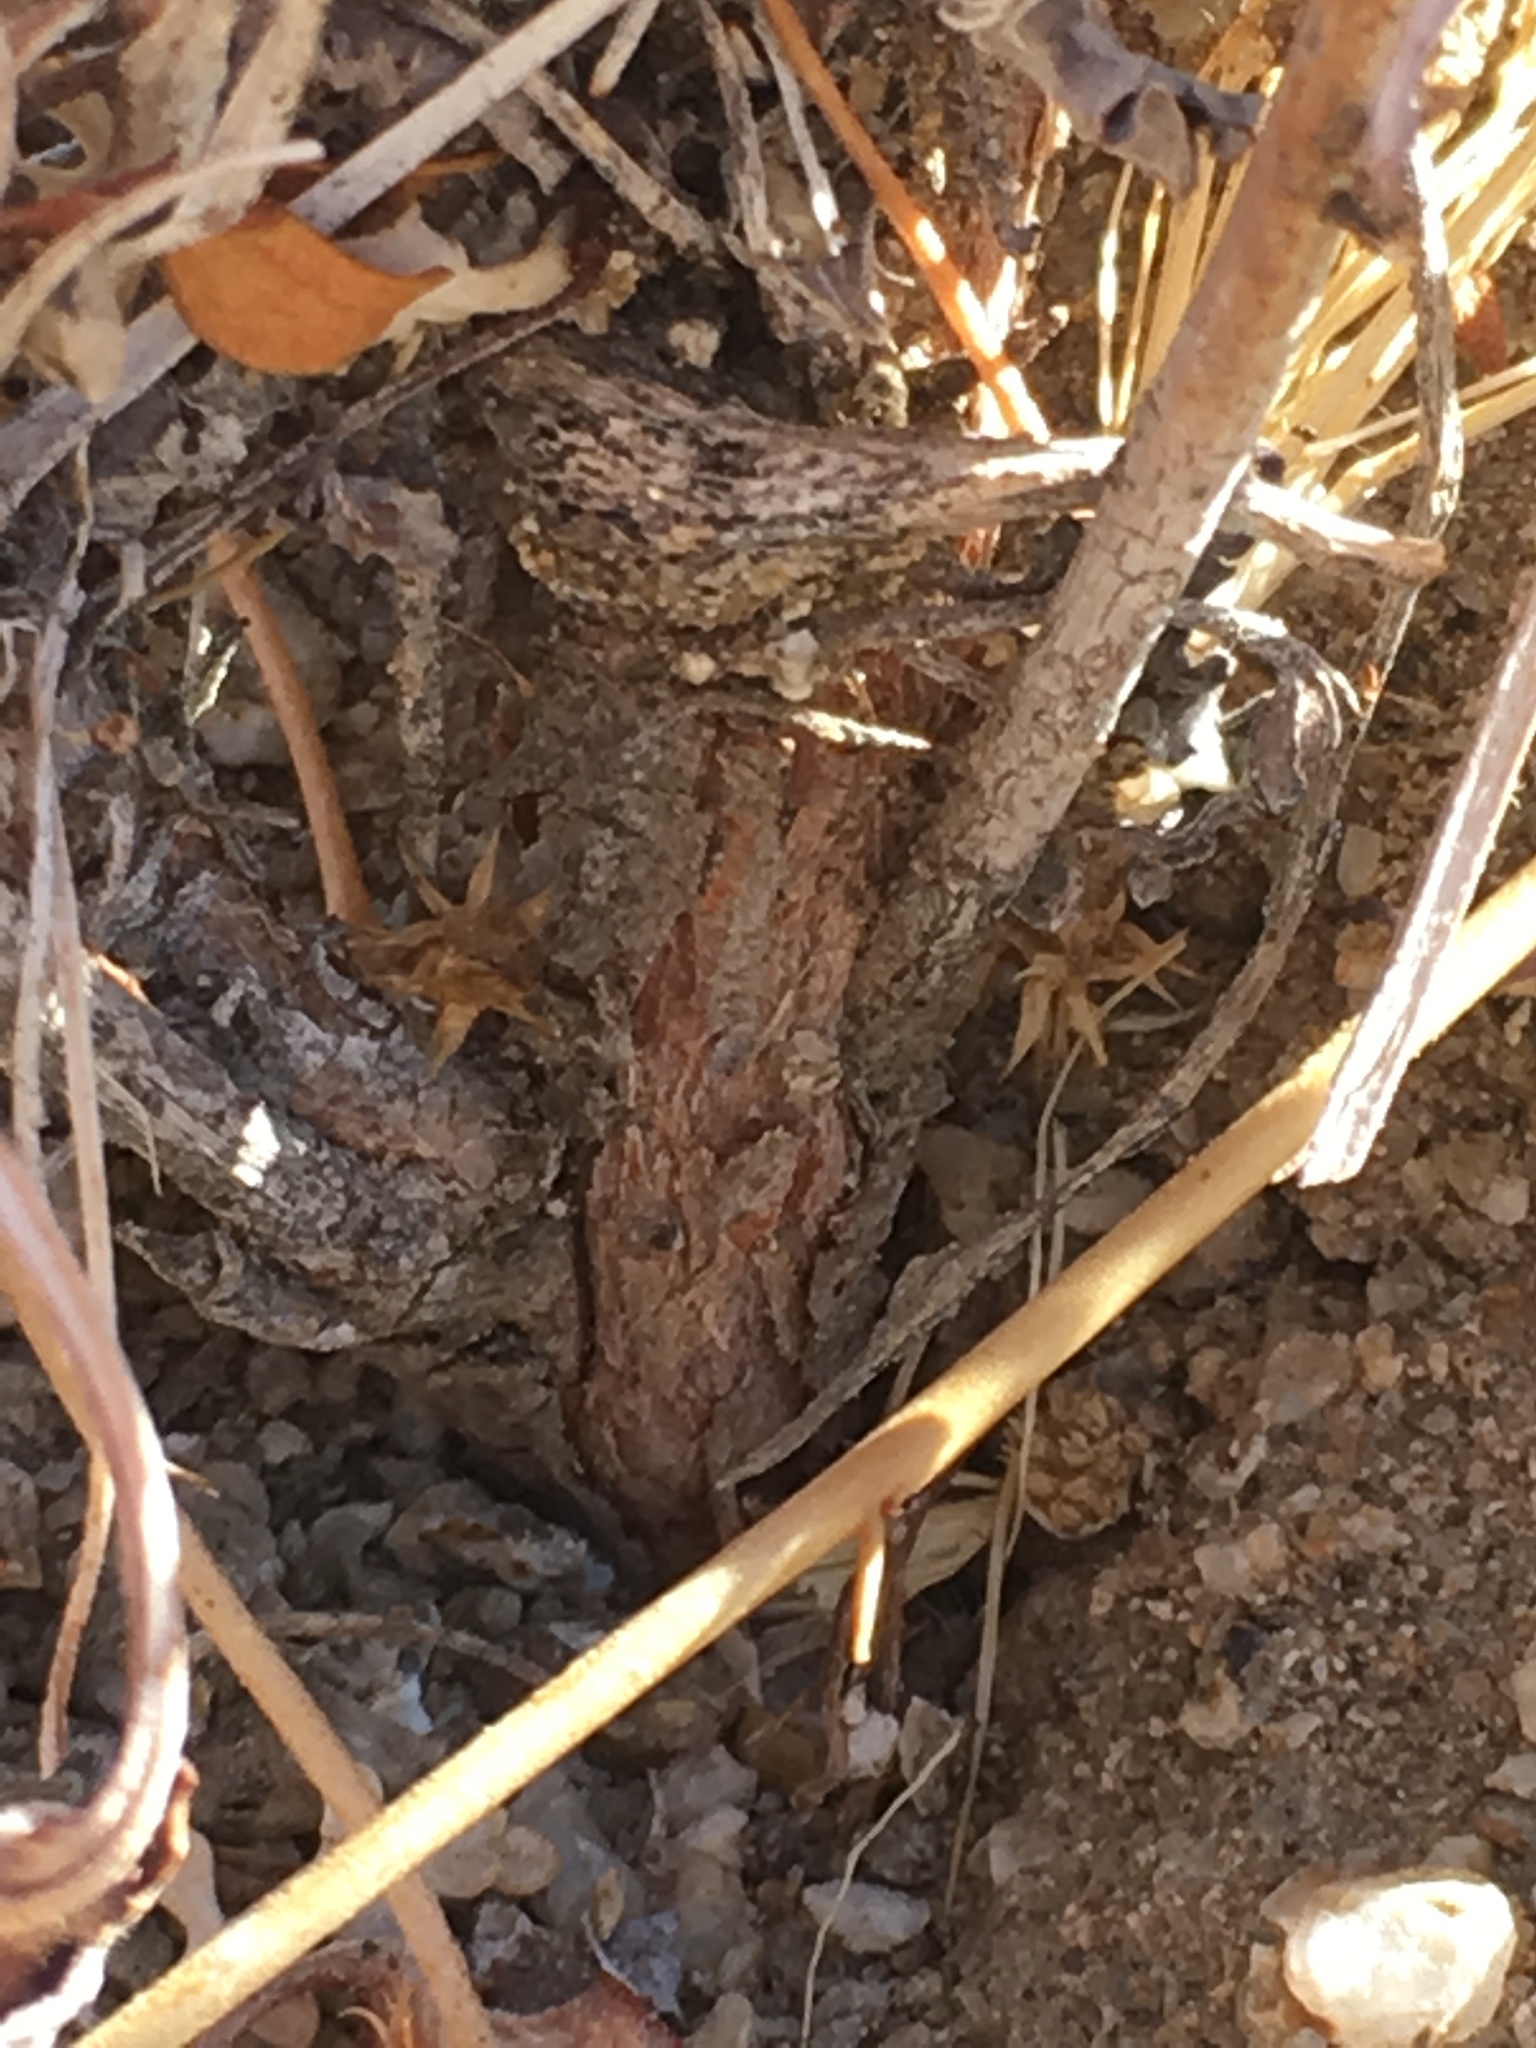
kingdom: Plantae
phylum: Tracheophyta
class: Magnoliopsida
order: Caryophyllales
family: Polygonaceae
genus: Eriogonum
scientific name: Eriogonum inflatum
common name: Desert trumpet
